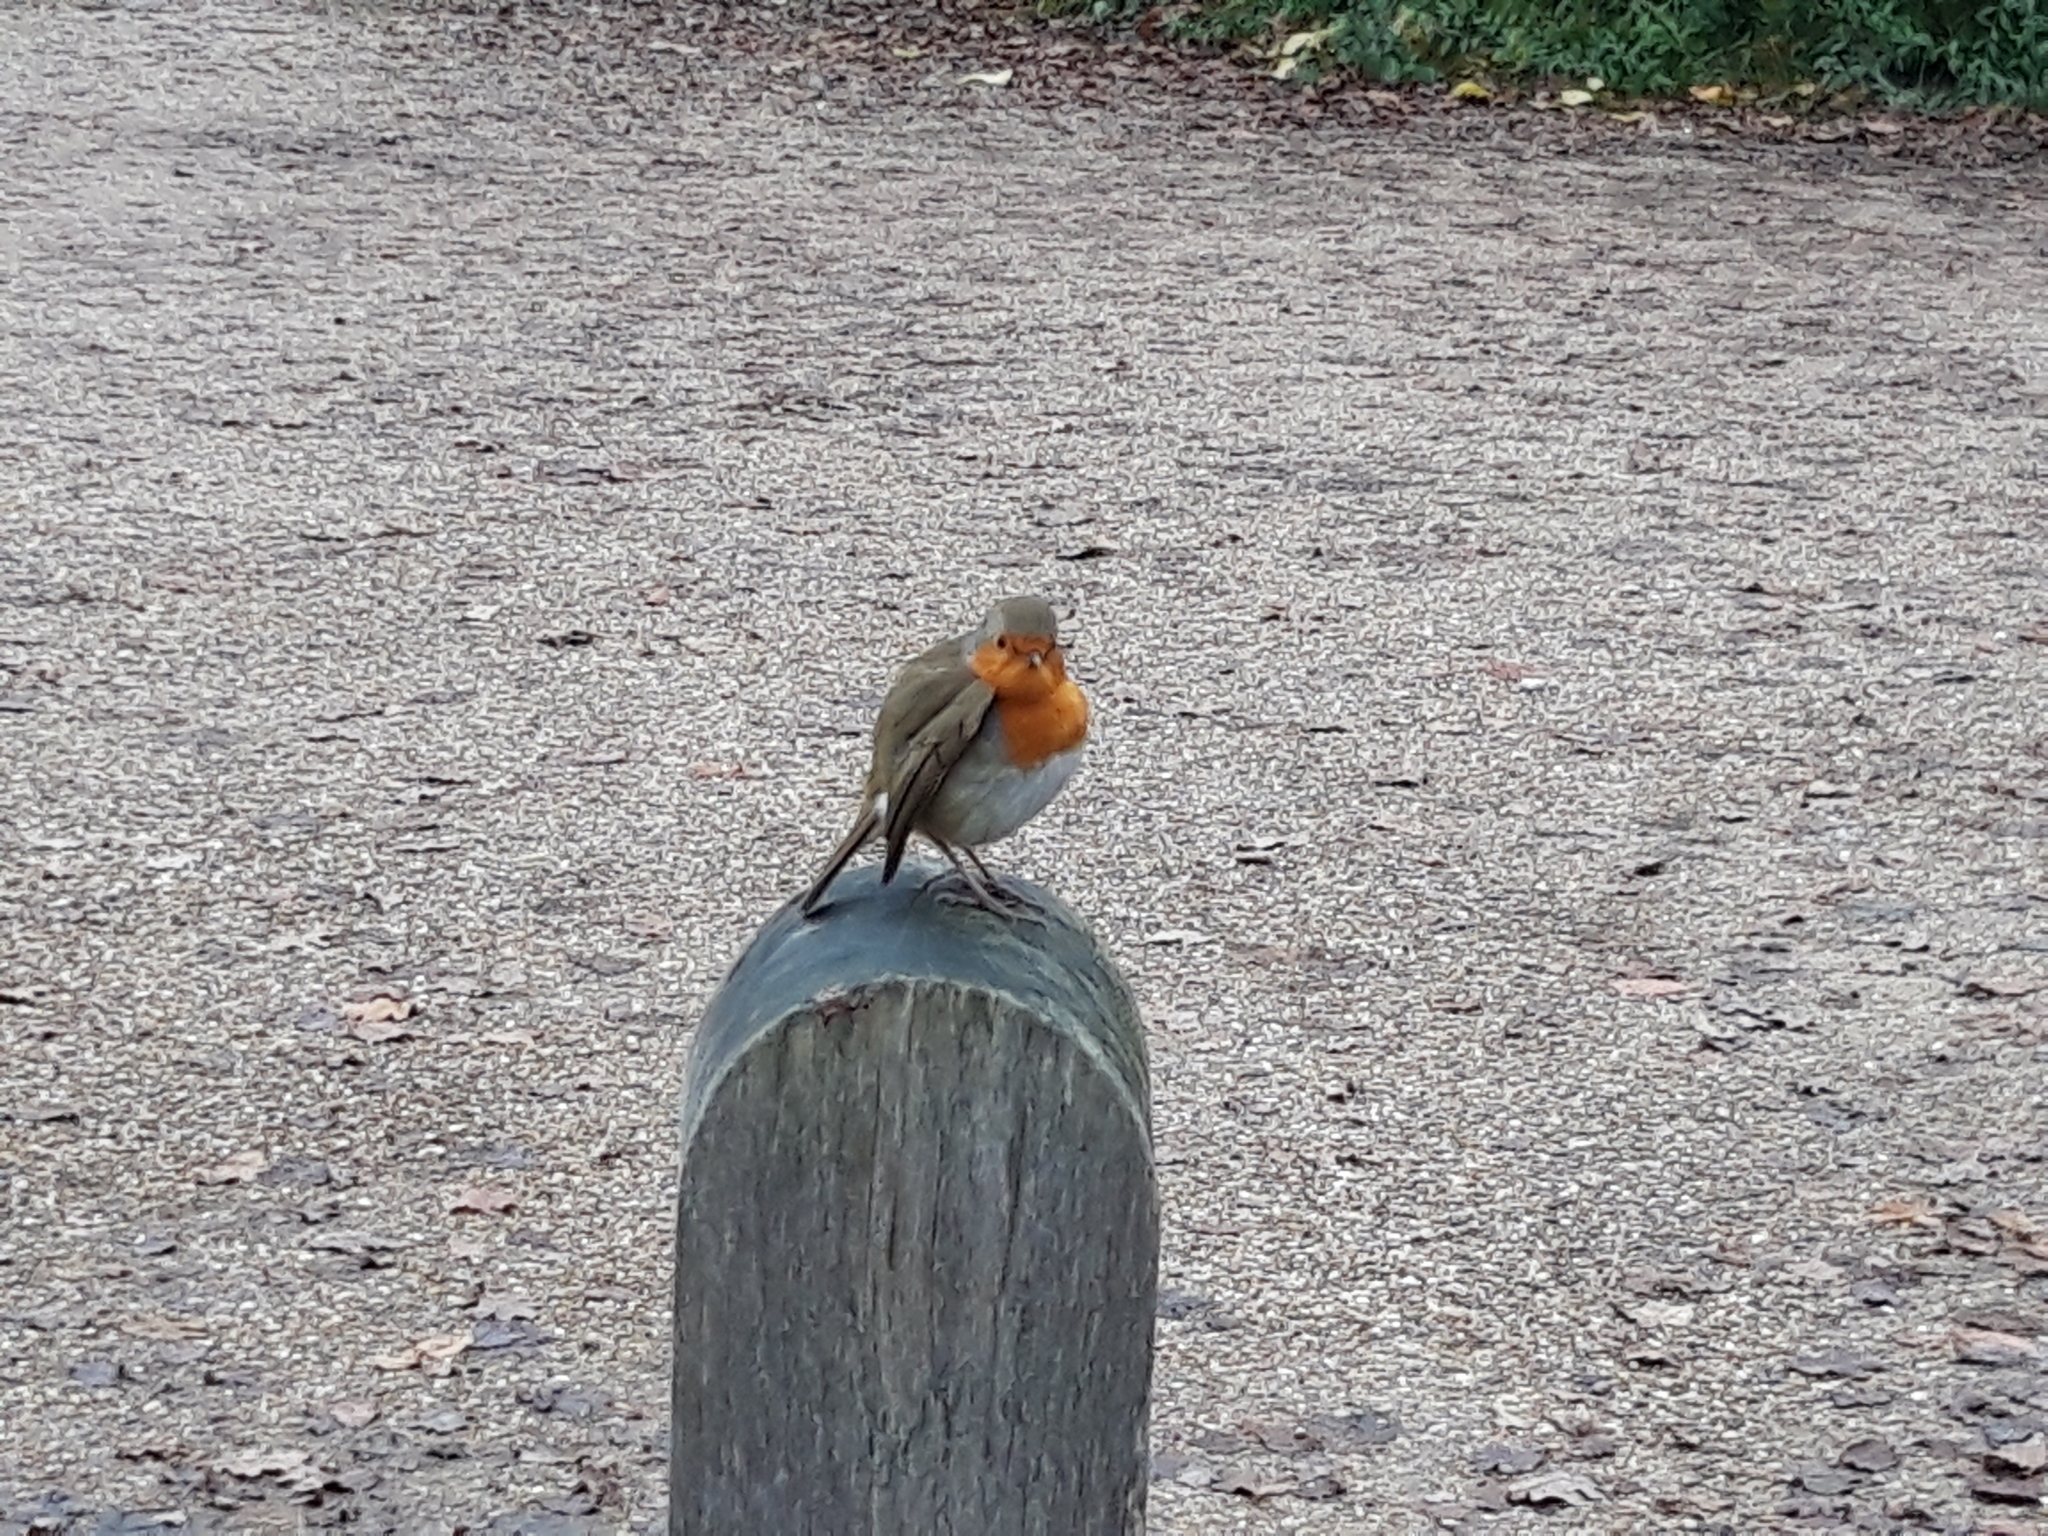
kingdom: Animalia
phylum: Chordata
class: Aves
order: Passeriformes
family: Muscicapidae
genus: Erithacus
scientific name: Erithacus rubecula
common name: European robin
